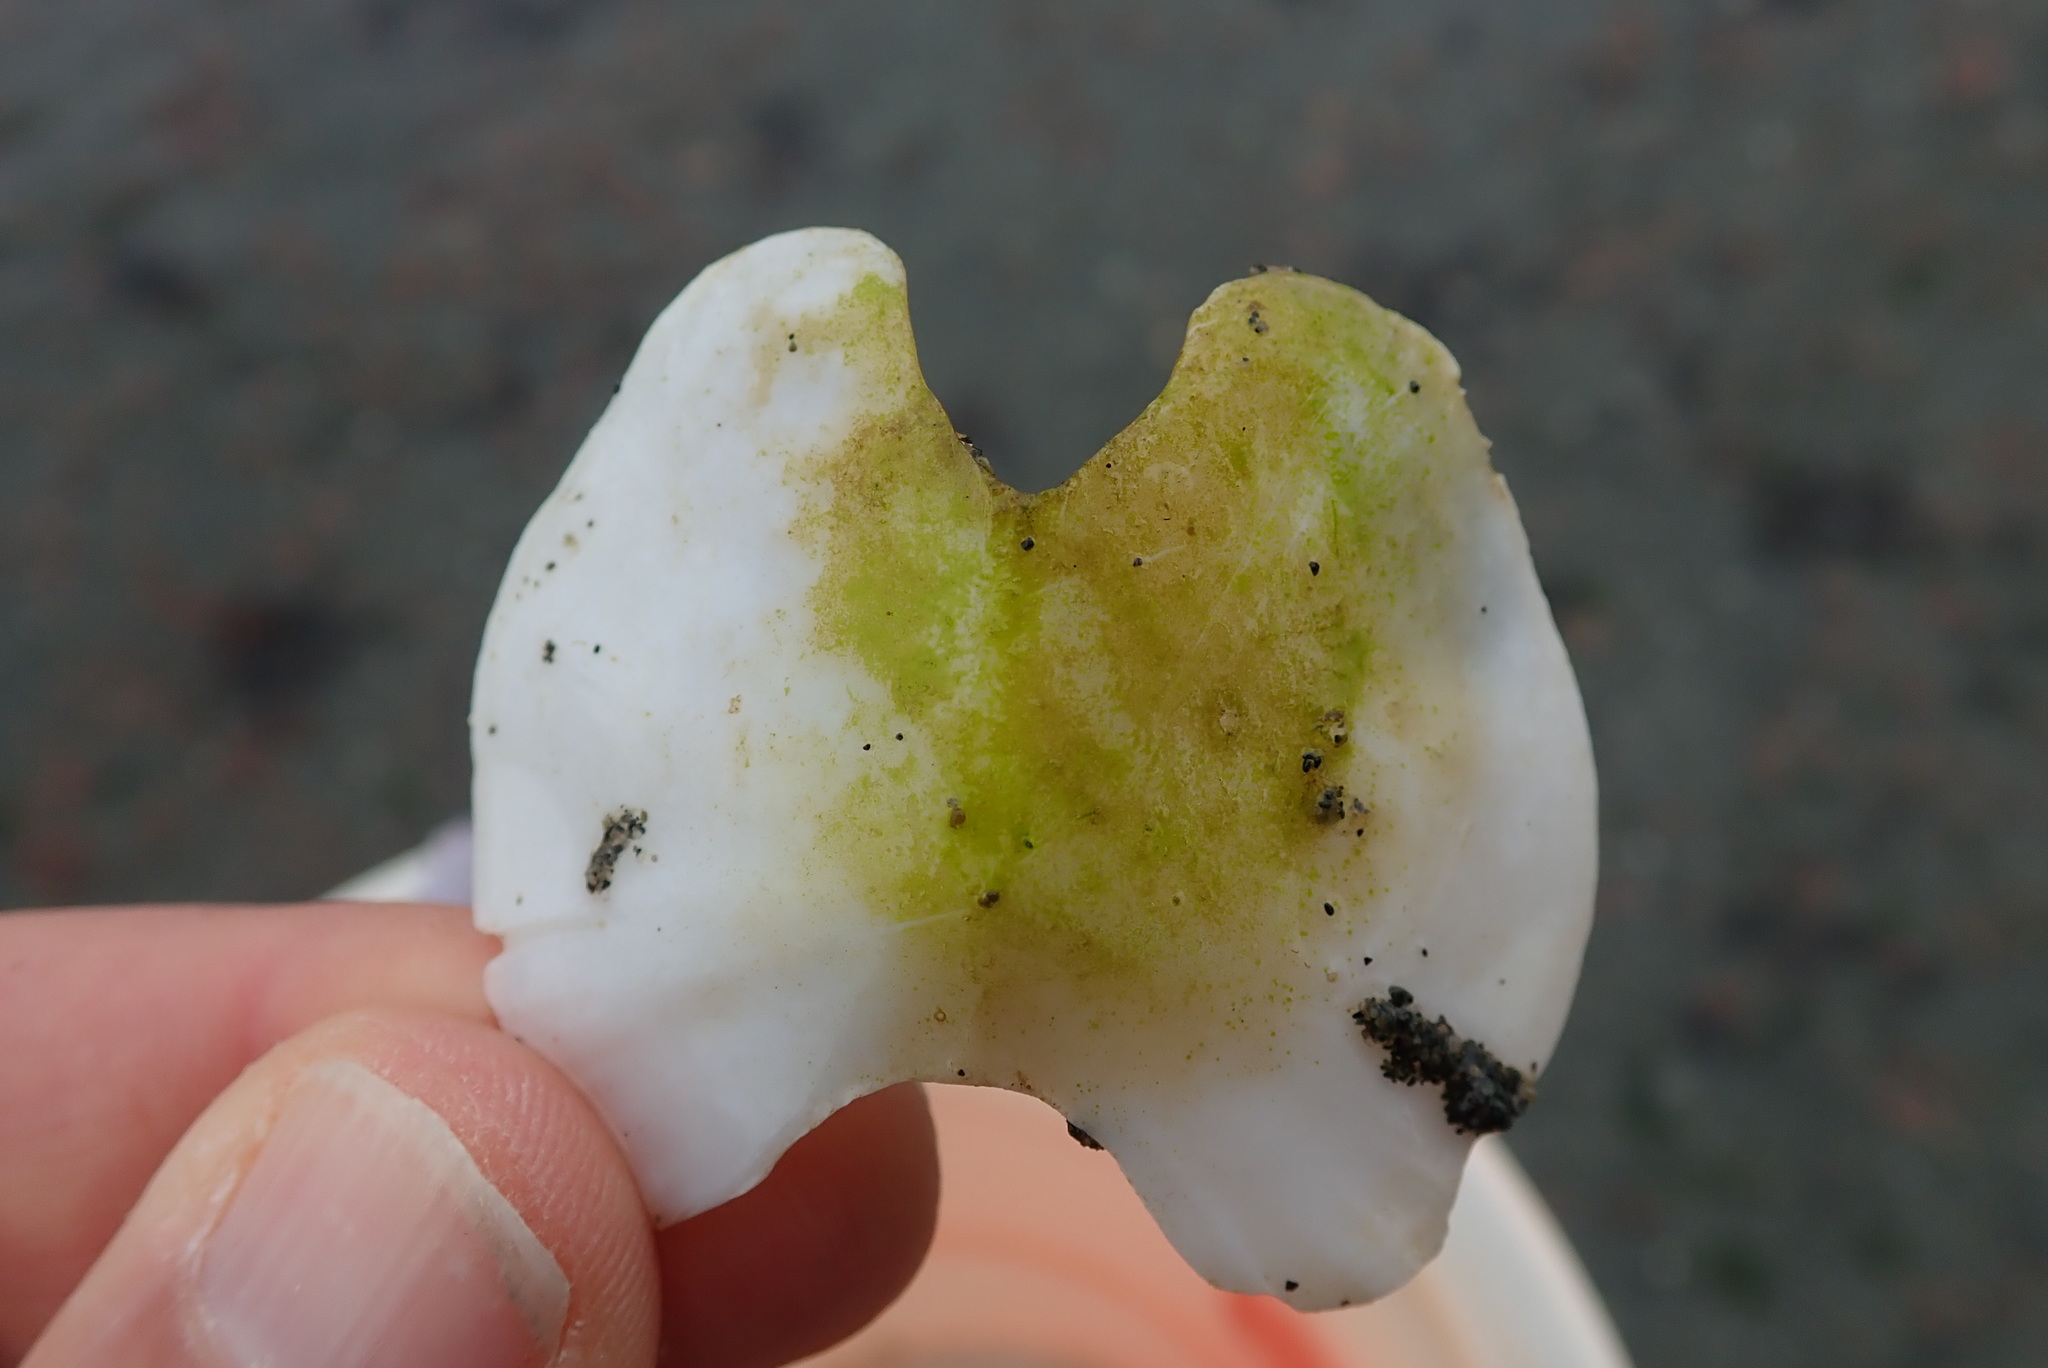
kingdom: Animalia
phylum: Mollusca
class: Polyplacophora
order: Chitonida
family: Acanthochitonidae
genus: Cryptochiton
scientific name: Cryptochiton stelleri
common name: Giant pacific chiton
